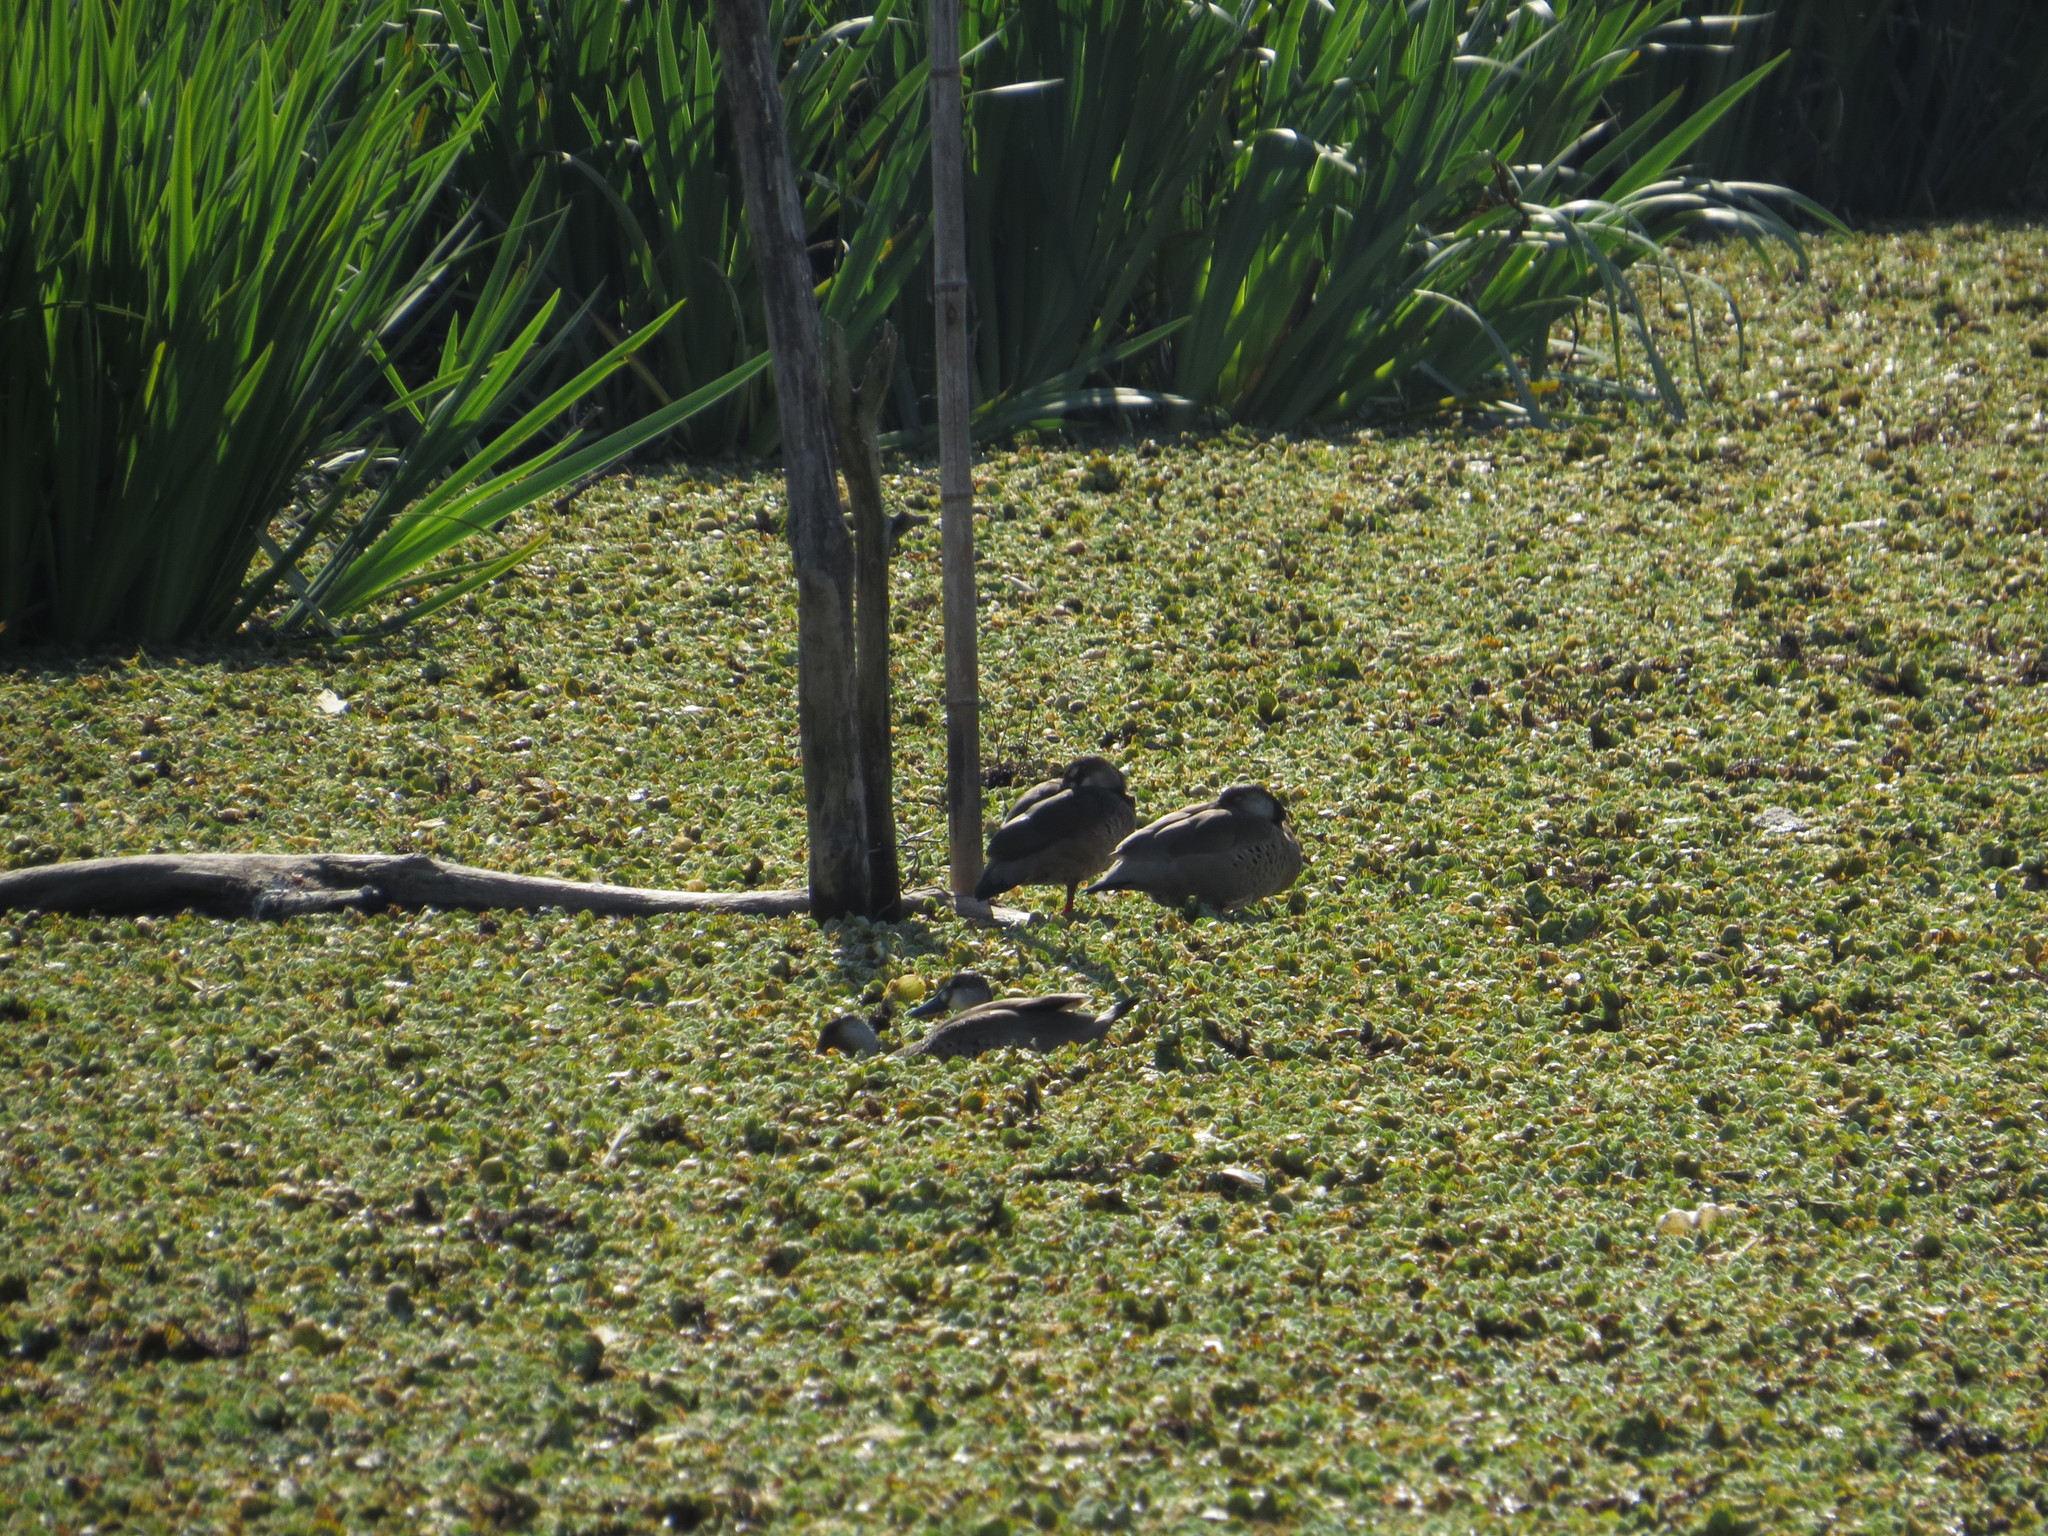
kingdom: Animalia
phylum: Chordata
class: Aves
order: Anseriformes
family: Anatidae
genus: Amazonetta
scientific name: Amazonetta brasiliensis
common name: Brazilian teal
